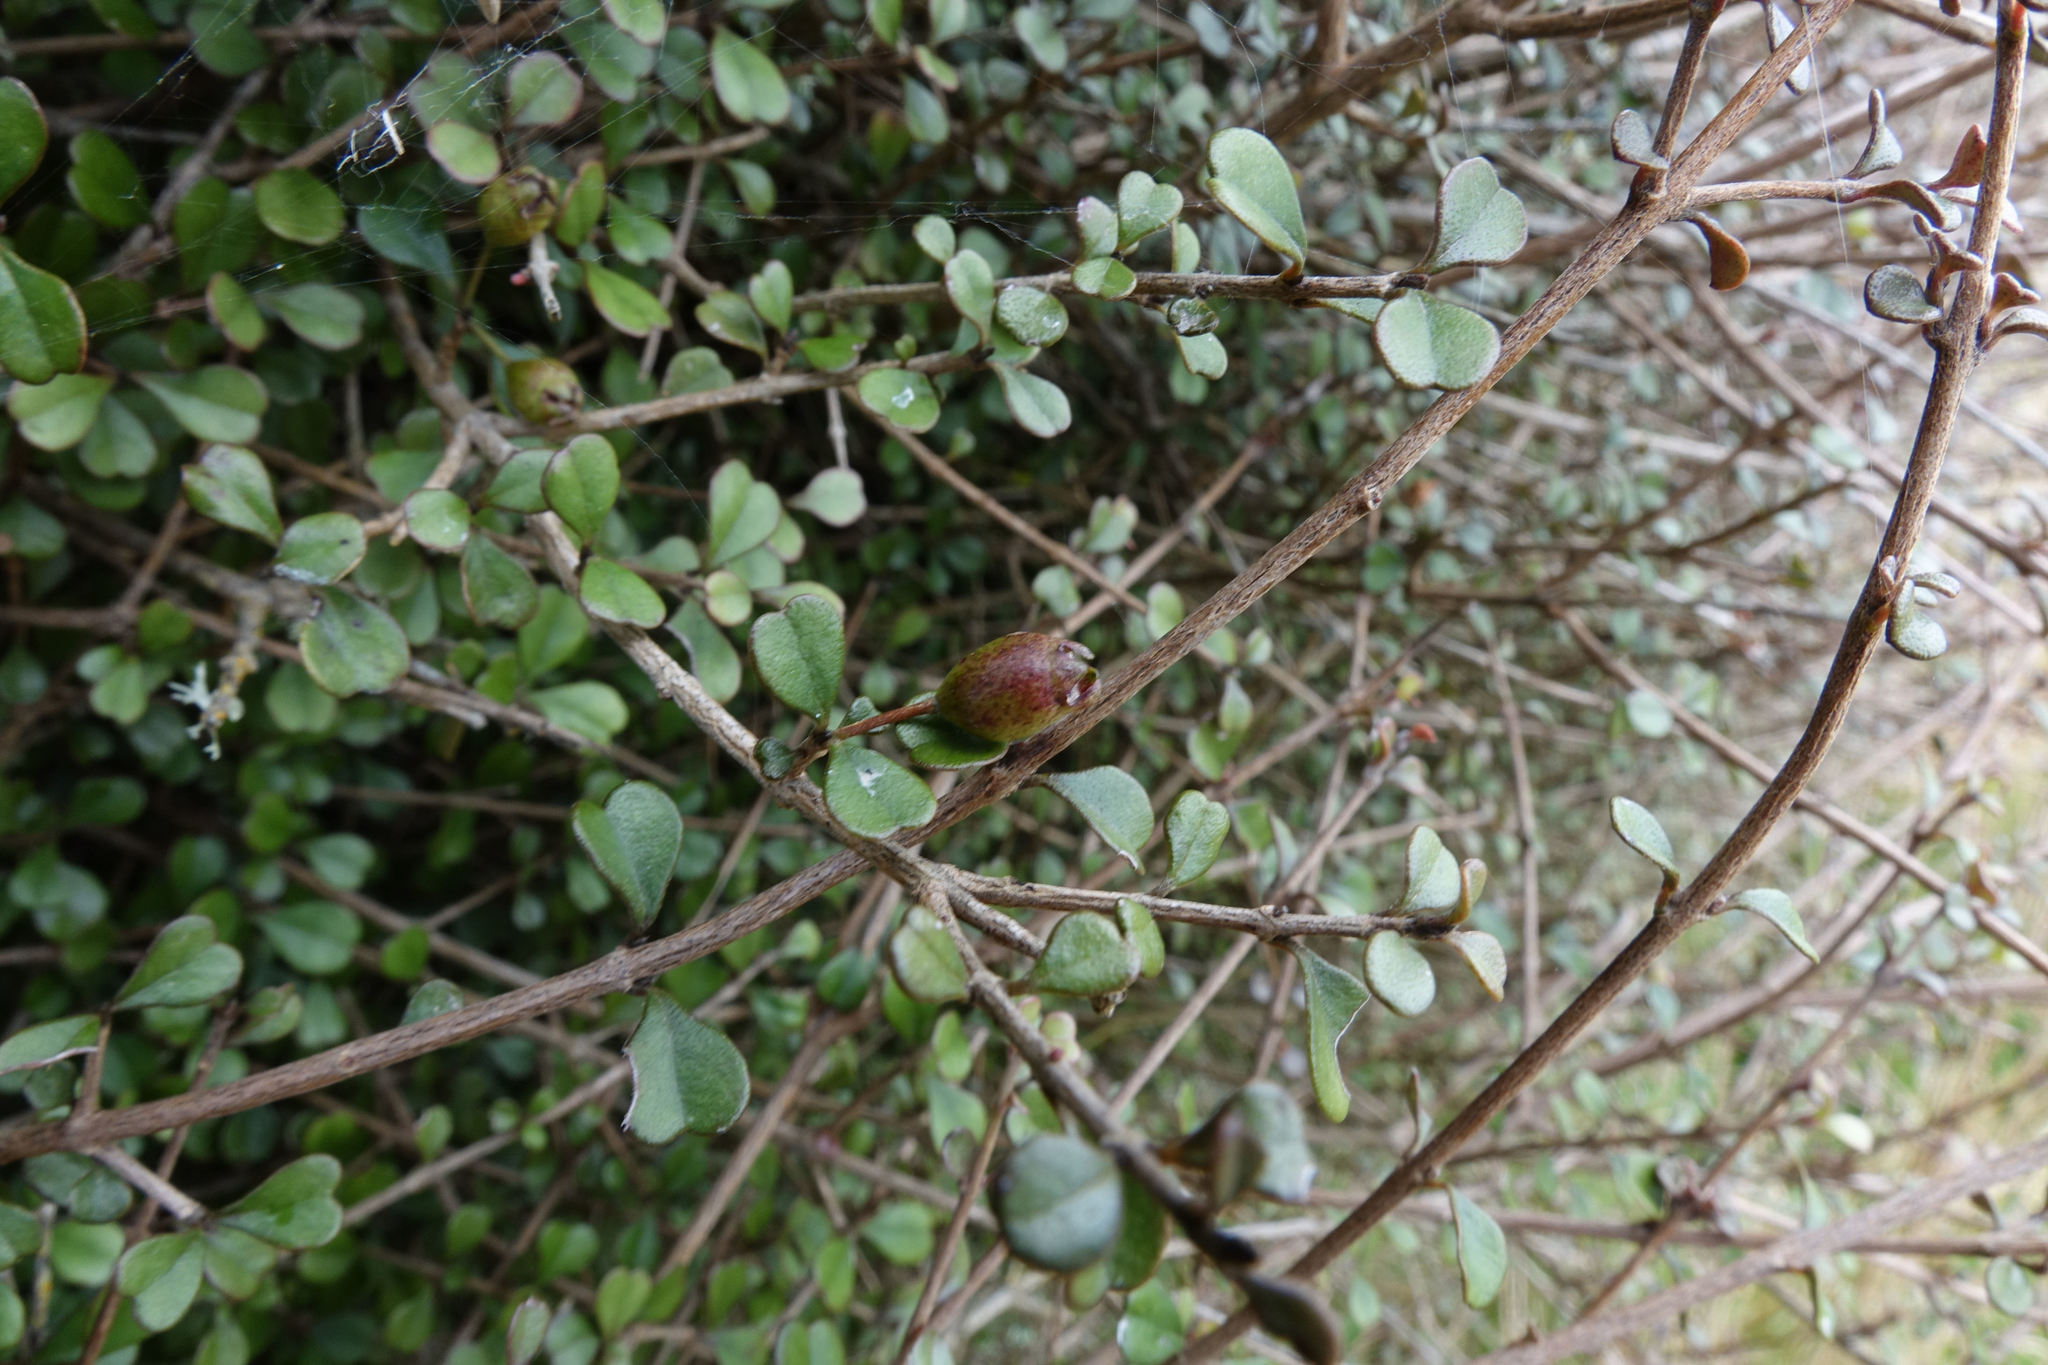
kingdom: Plantae
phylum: Tracheophyta
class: Magnoliopsida
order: Myrtales
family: Myrtaceae
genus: Lophomyrtus
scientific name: Lophomyrtus obcordata
